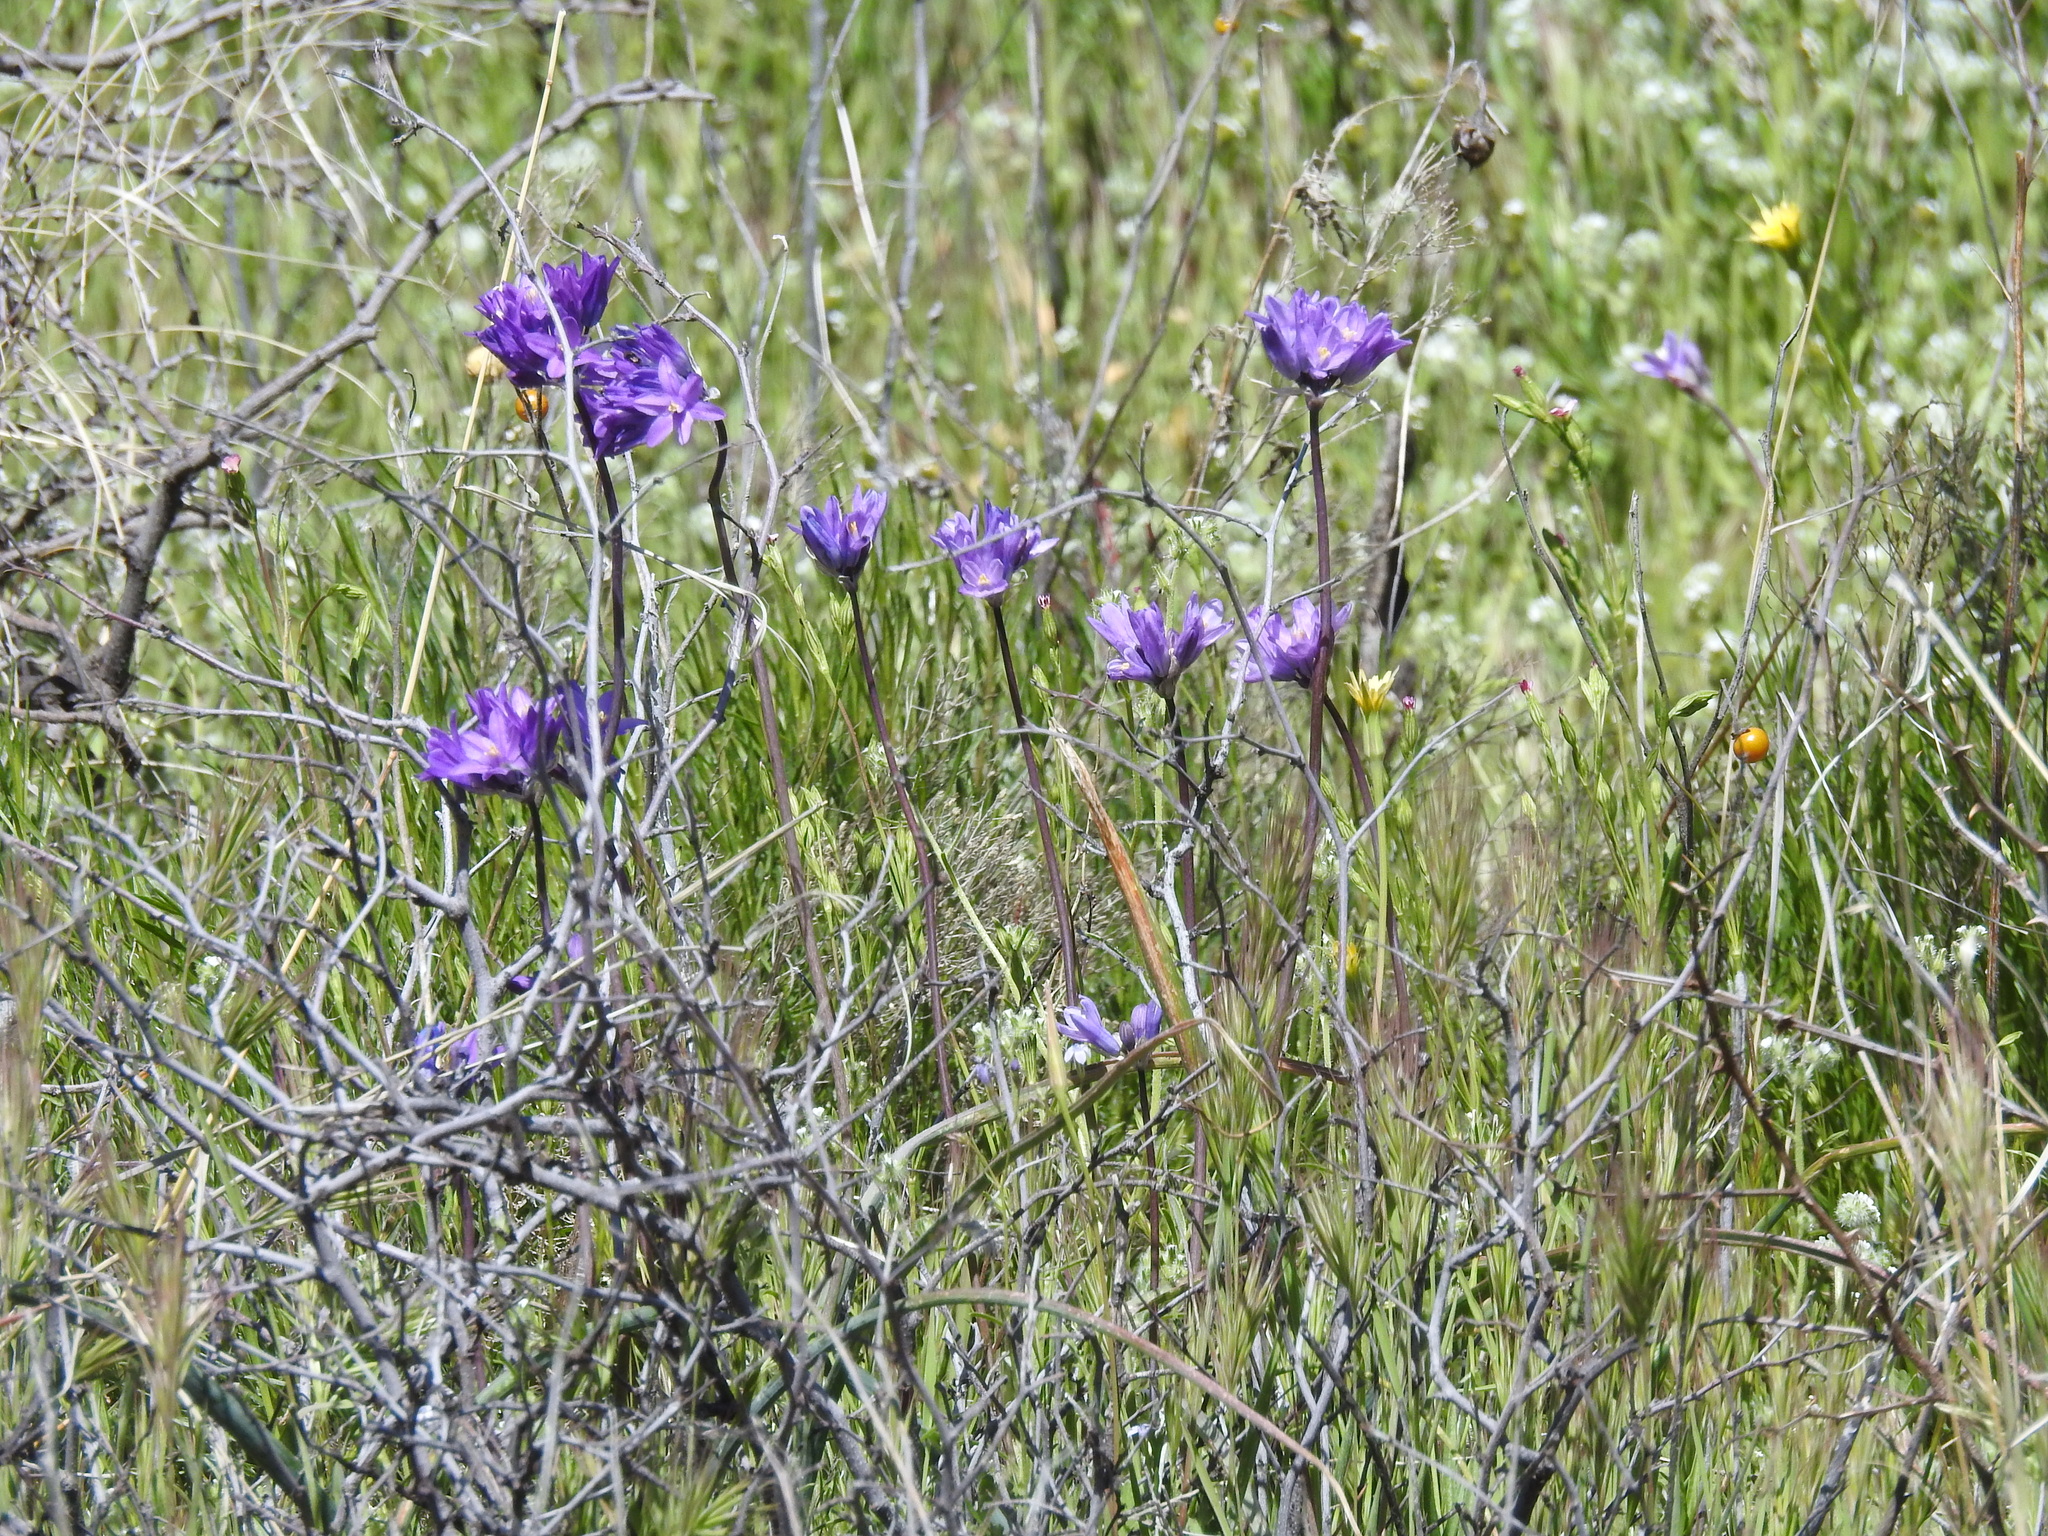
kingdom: Plantae
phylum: Tracheophyta
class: Liliopsida
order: Asparagales
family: Asparagaceae
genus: Dipterostemon
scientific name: Dipterostemon capitatus
